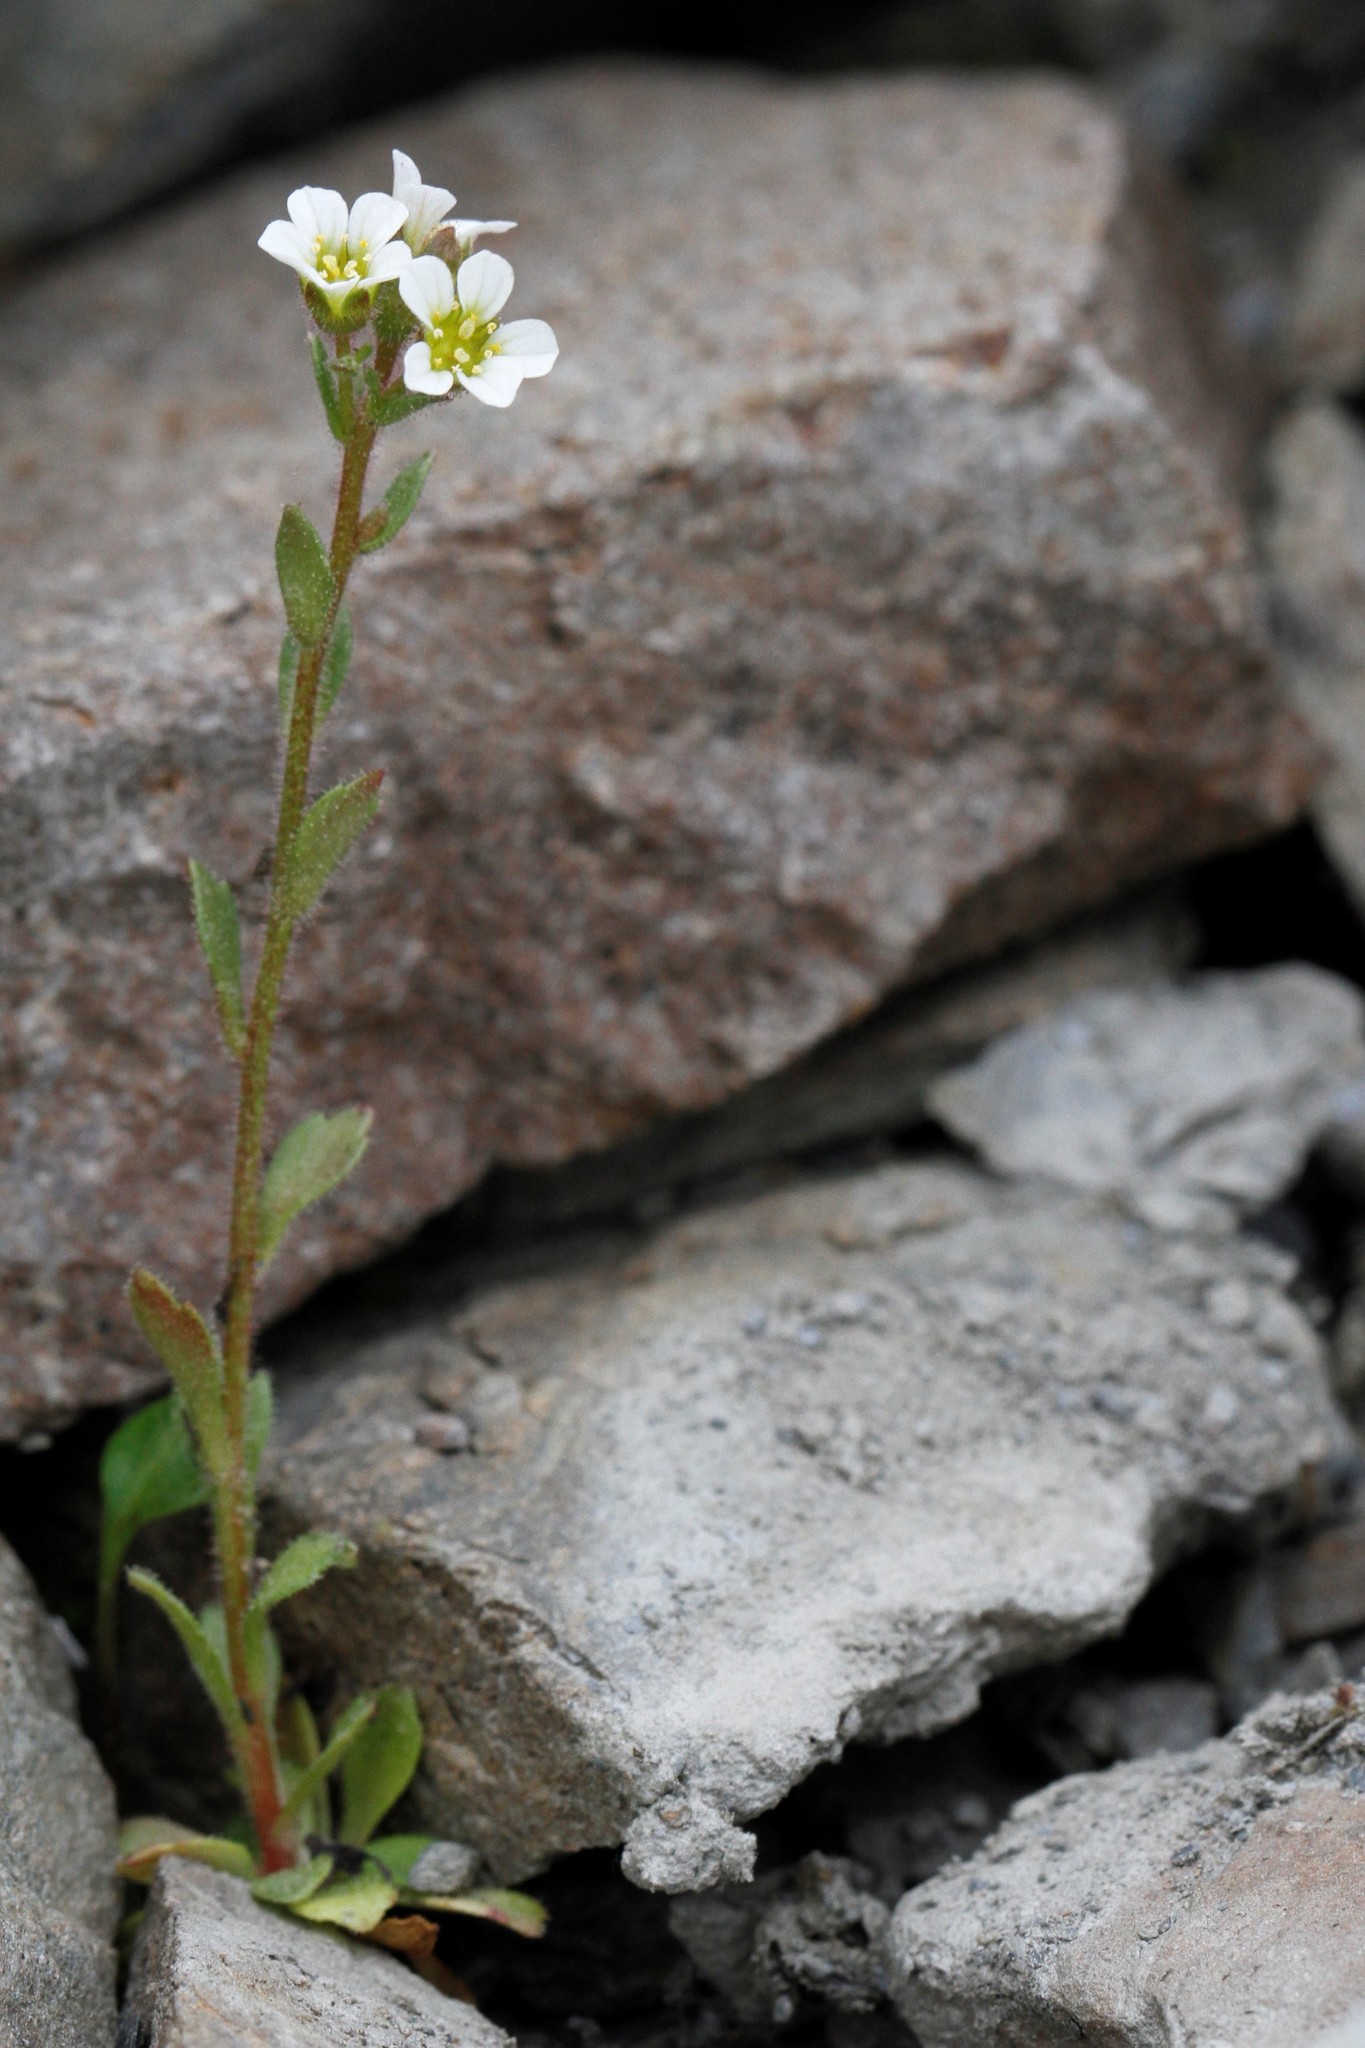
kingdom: Plantae
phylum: Tracheophyta
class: Magnoliopsida
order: Saxifragales
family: Saxifragaceae
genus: Saxifraga
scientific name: Saxifraga adscendens
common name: Ascending saxifrage
